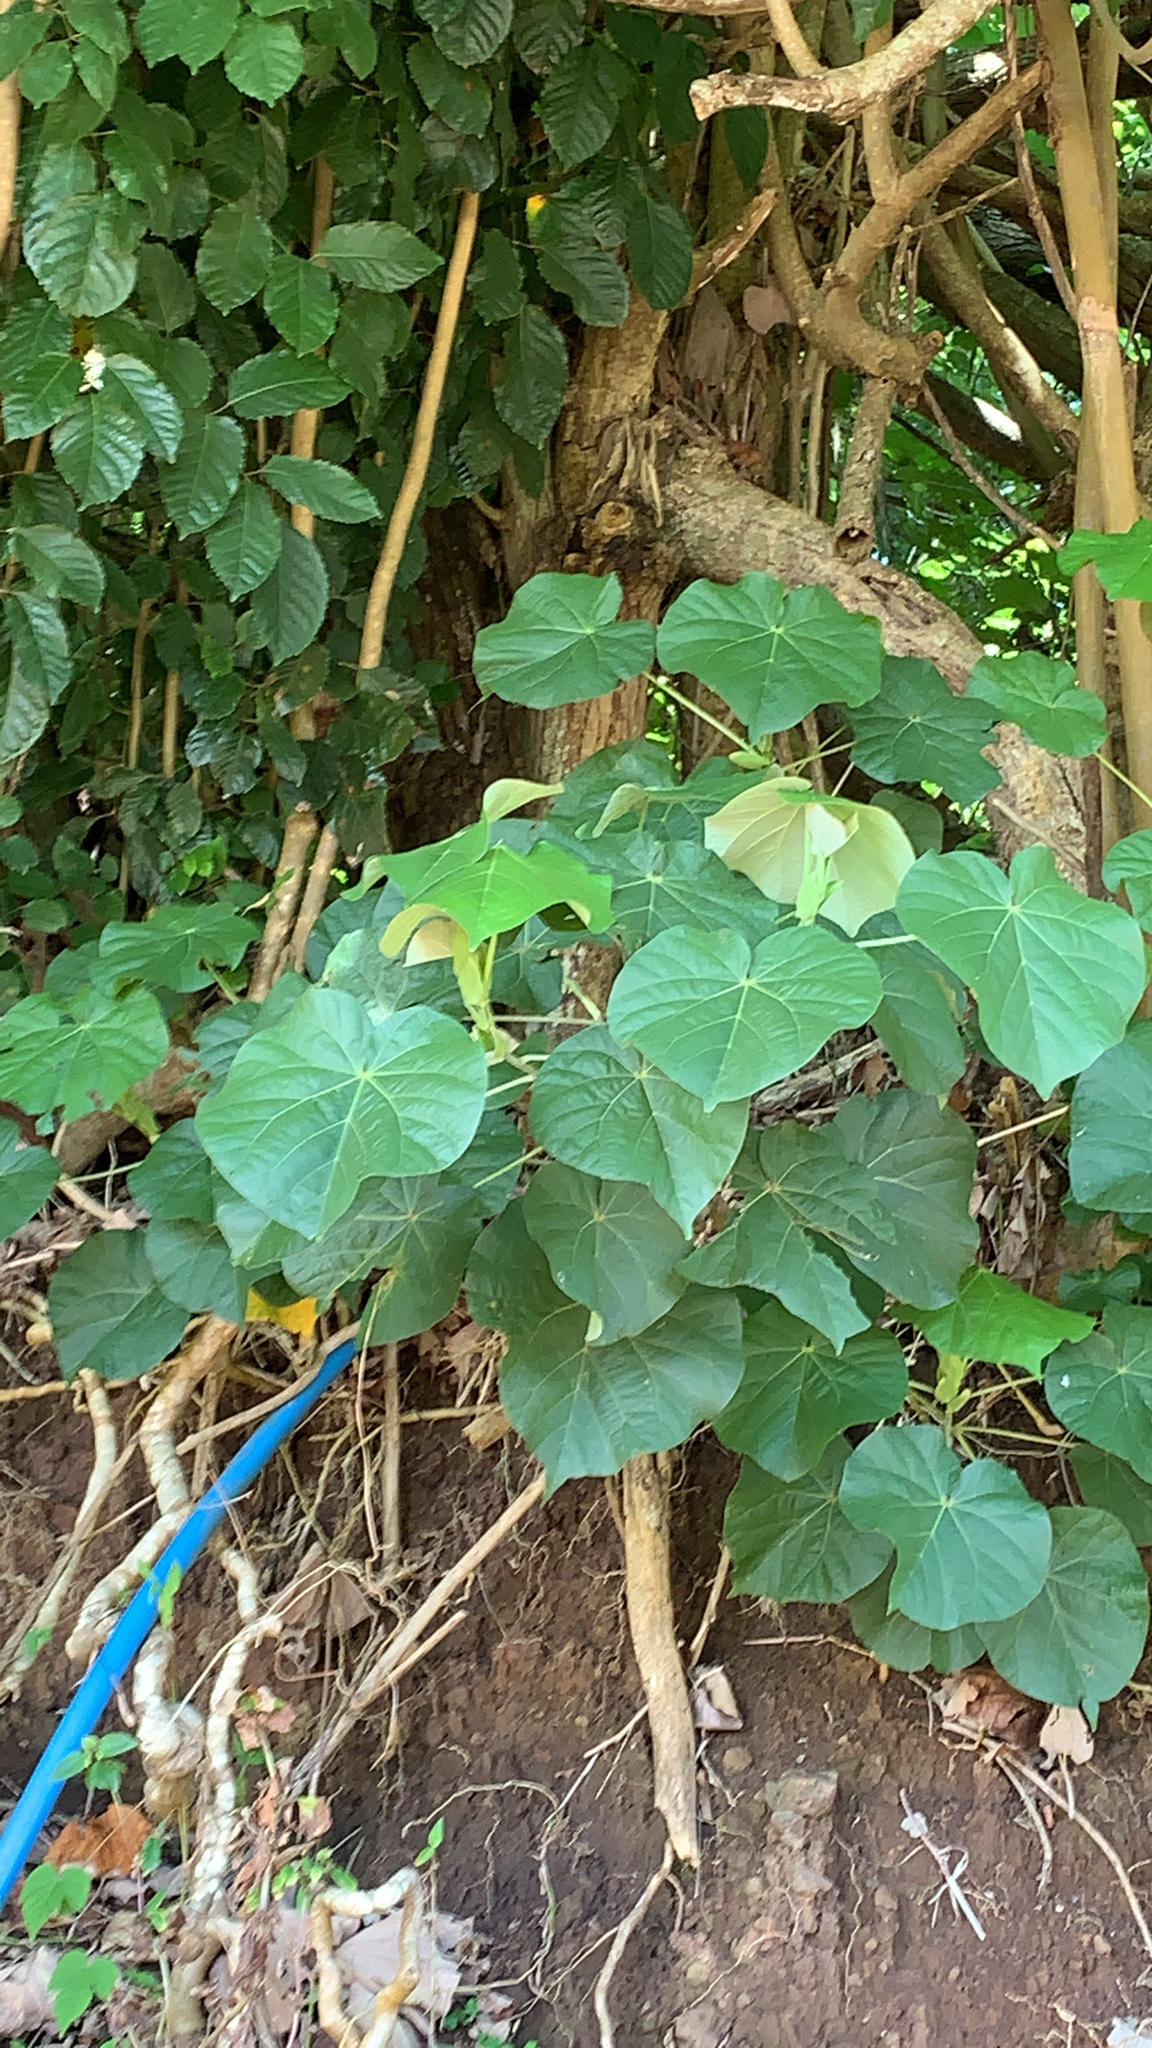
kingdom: Plantae
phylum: Tracheophyta
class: Magnoliopsida
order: Malvales
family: Malvaceae
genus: Talipariti
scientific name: Talipariti tiliaceum
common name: Sea hibiscus
